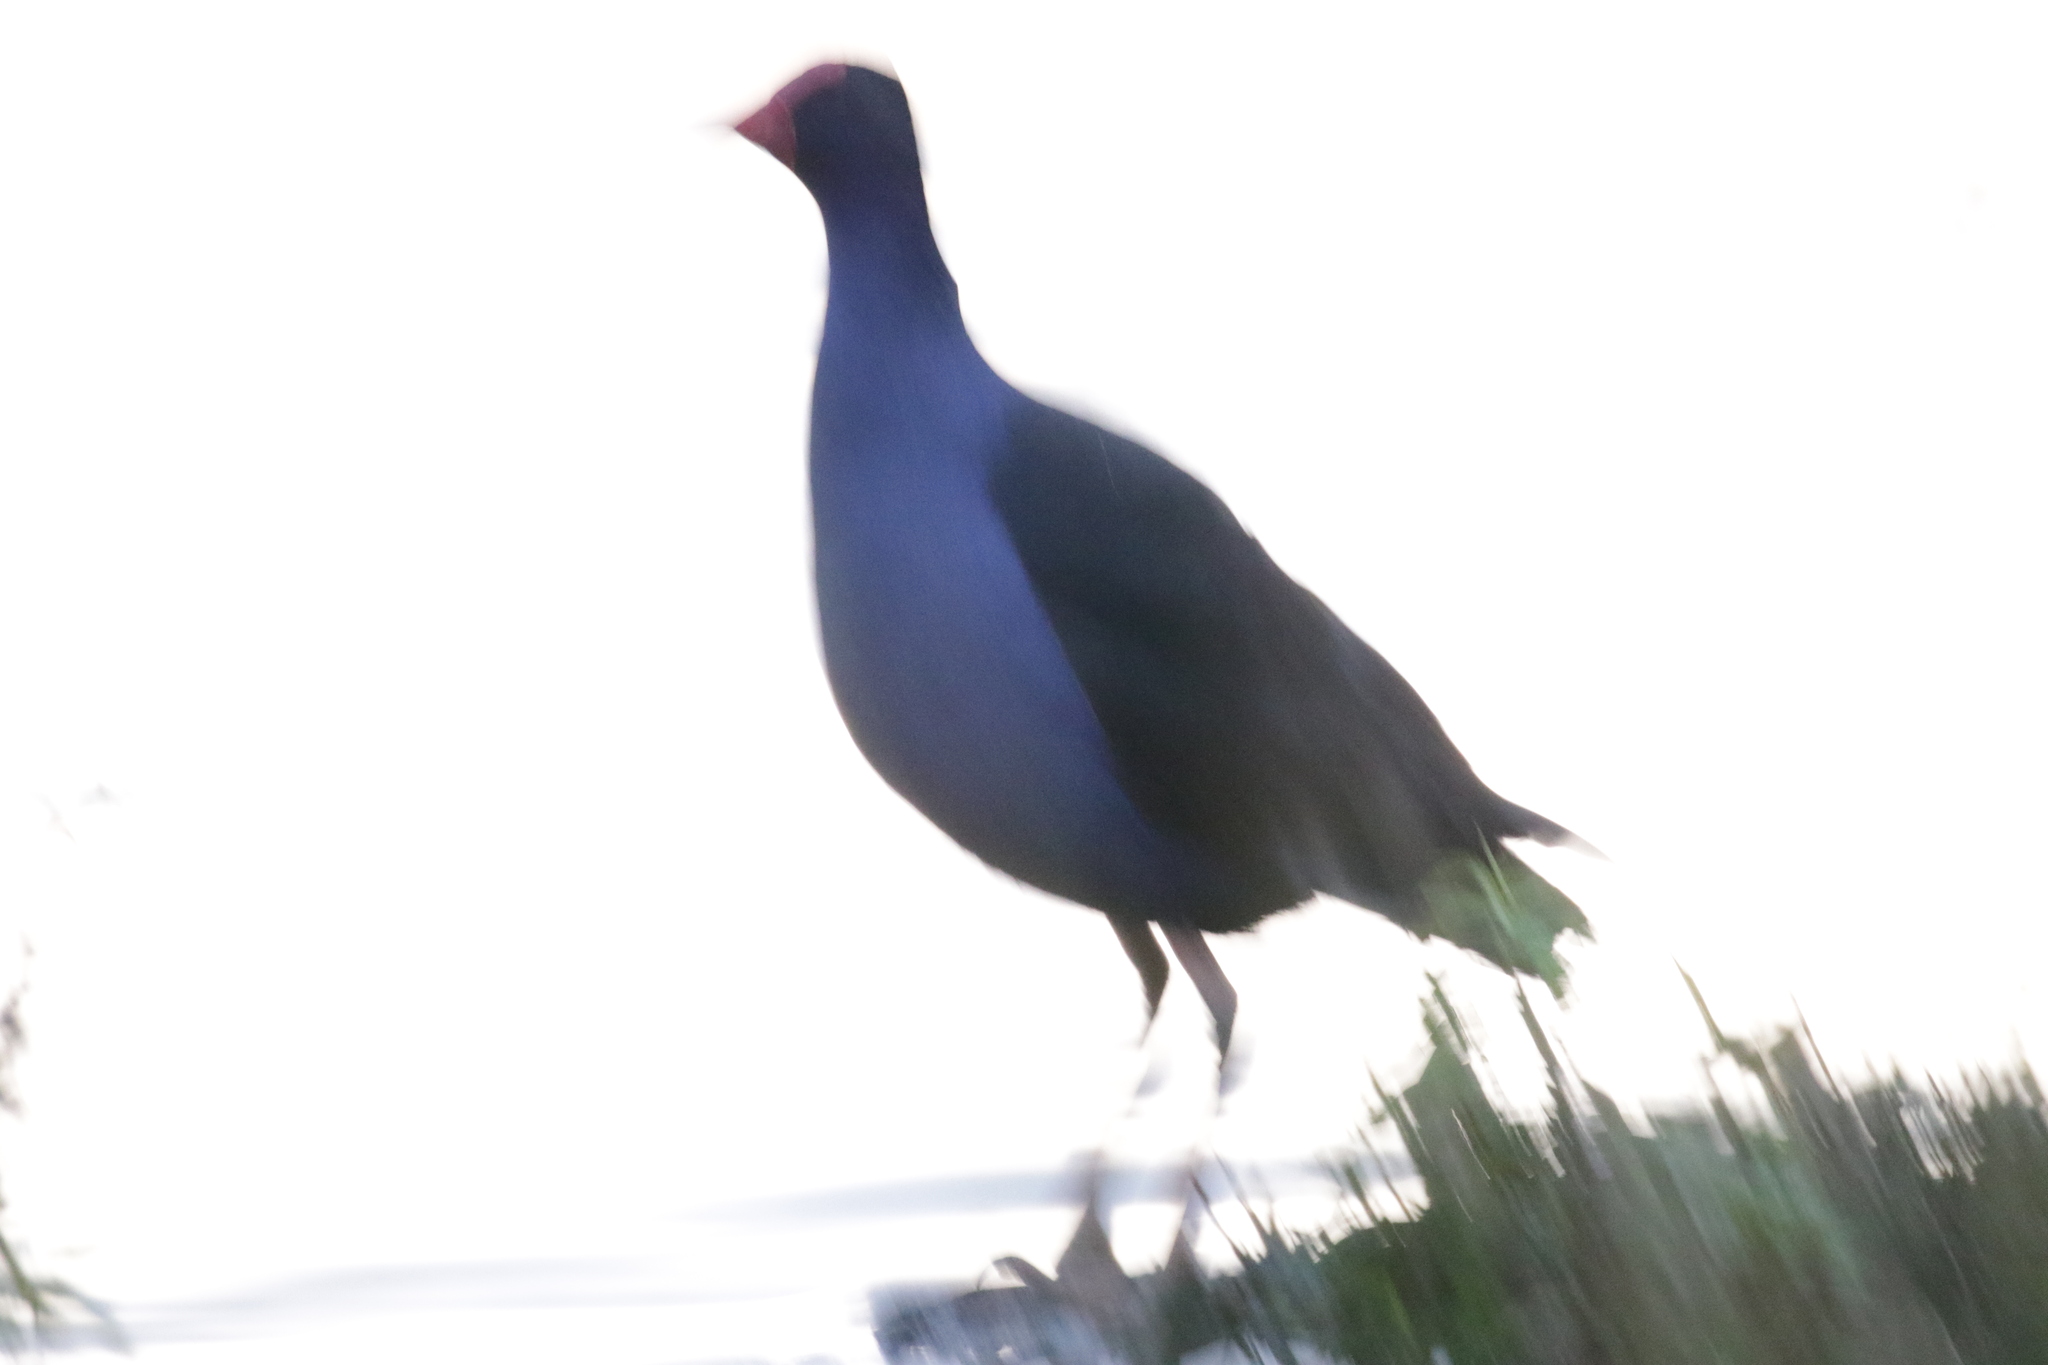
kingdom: Animalia
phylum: Chordata
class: Aves
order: Gruiformes
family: Rallidae
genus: Porphyrio
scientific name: Porphyrio melanotus
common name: Australasian swamphen
